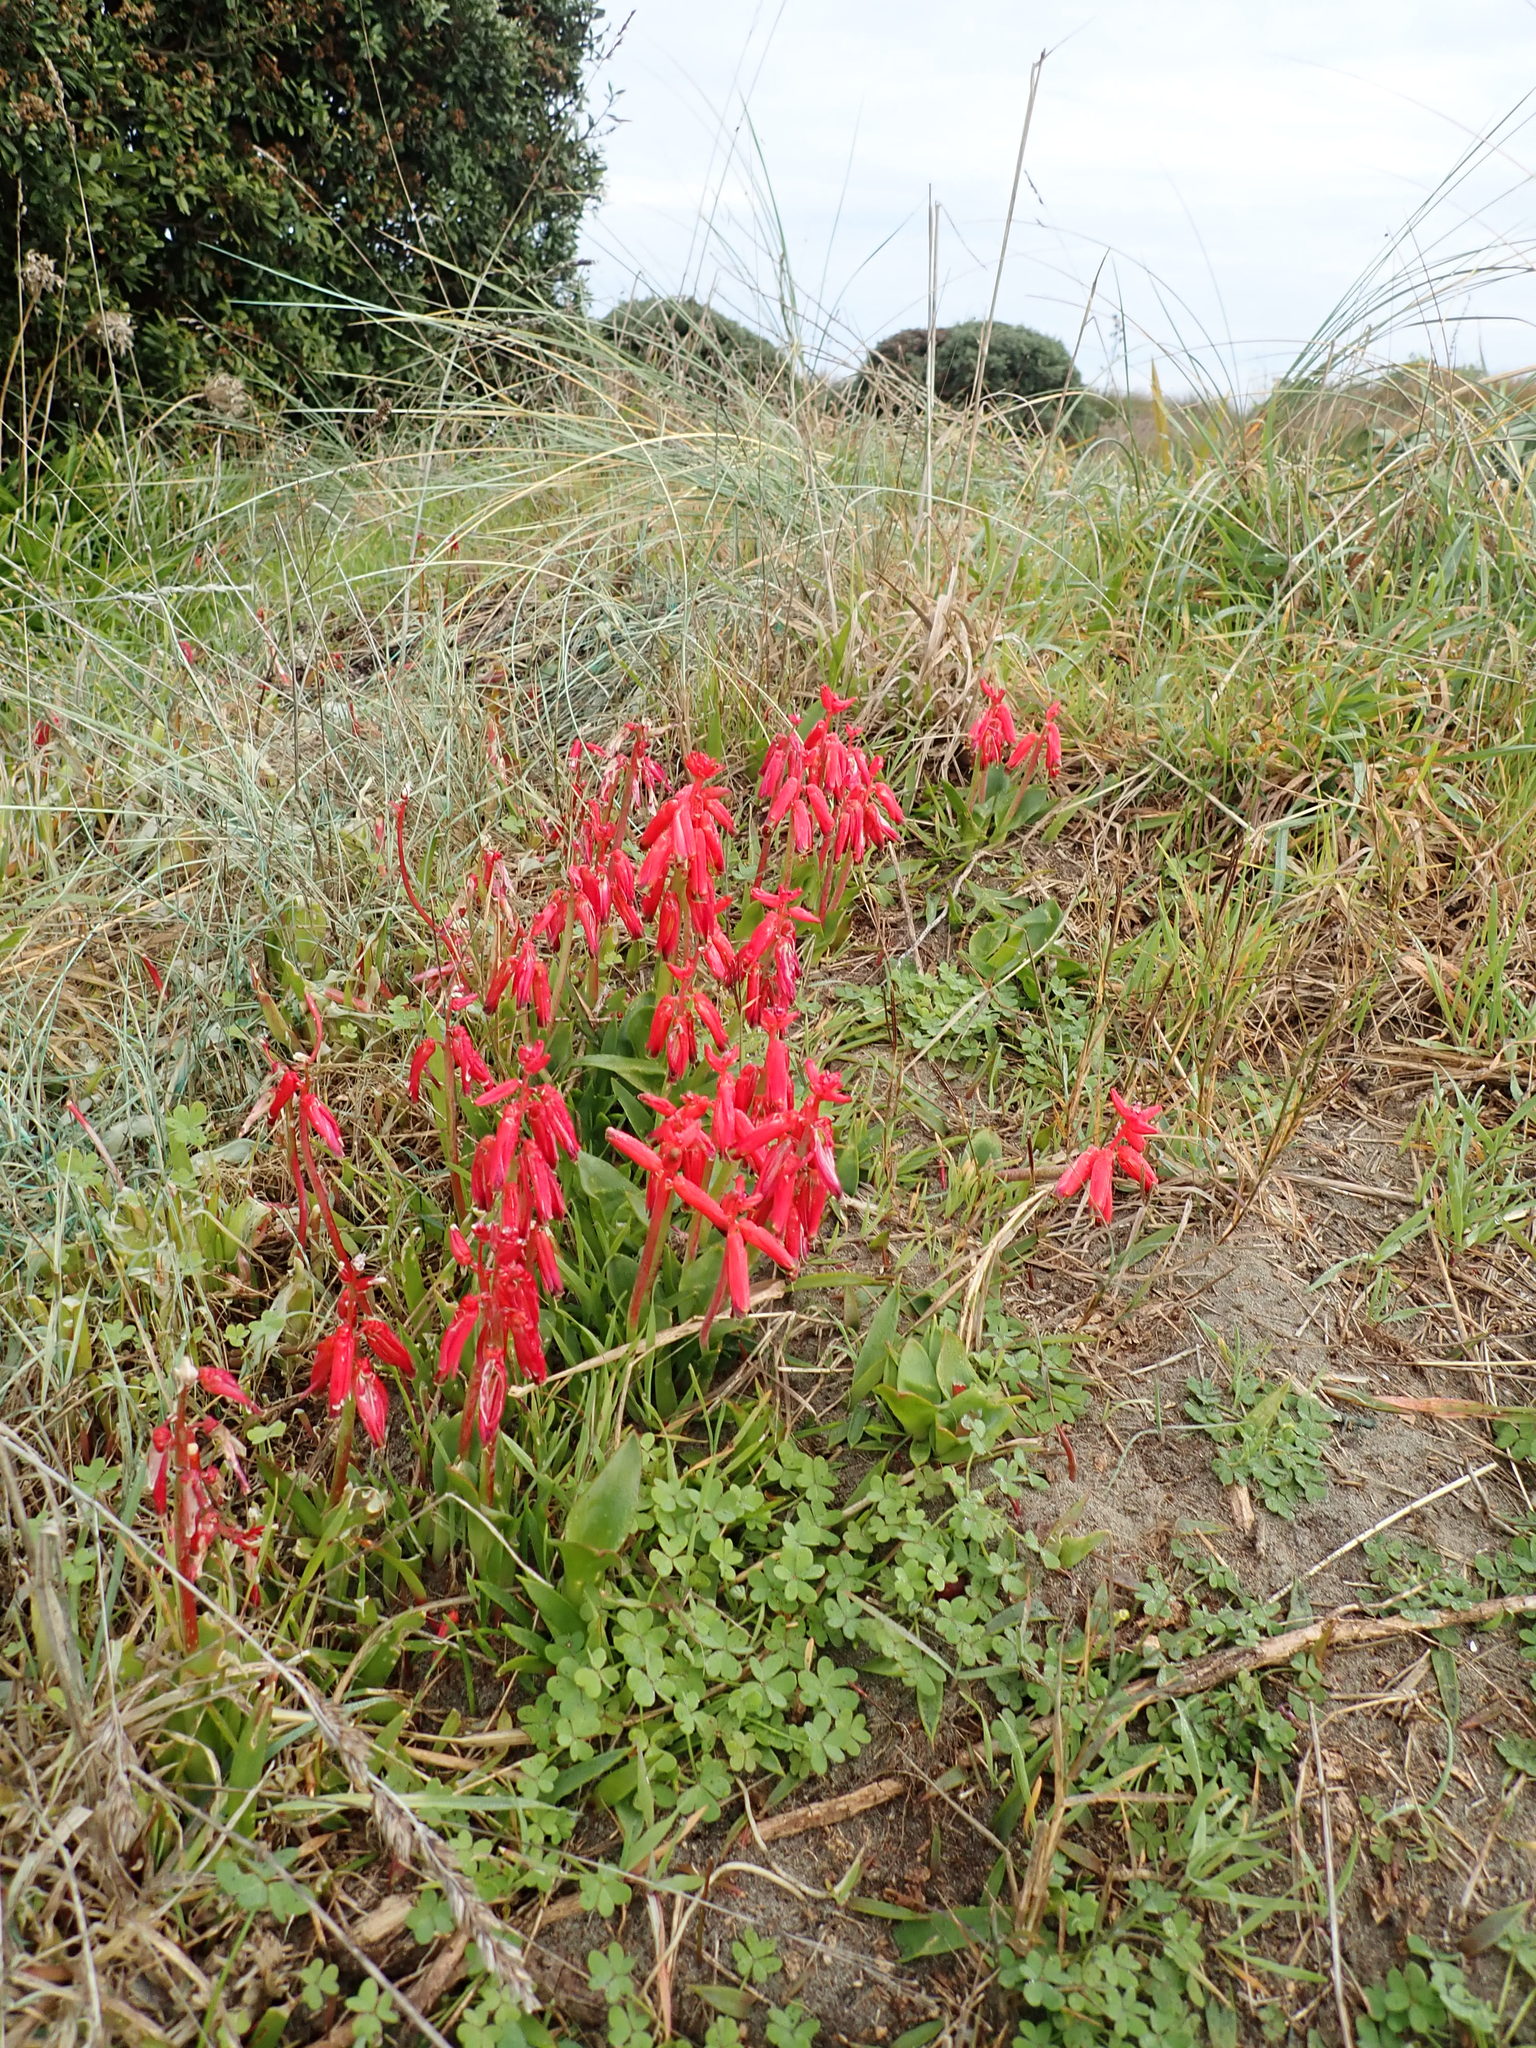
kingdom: Plantae
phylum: Tracheophyta
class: Liliopsida
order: Asparagales
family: Asparagaceae
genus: Lachenalia
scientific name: Lachenalia bulbifera
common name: Red lachenalia
